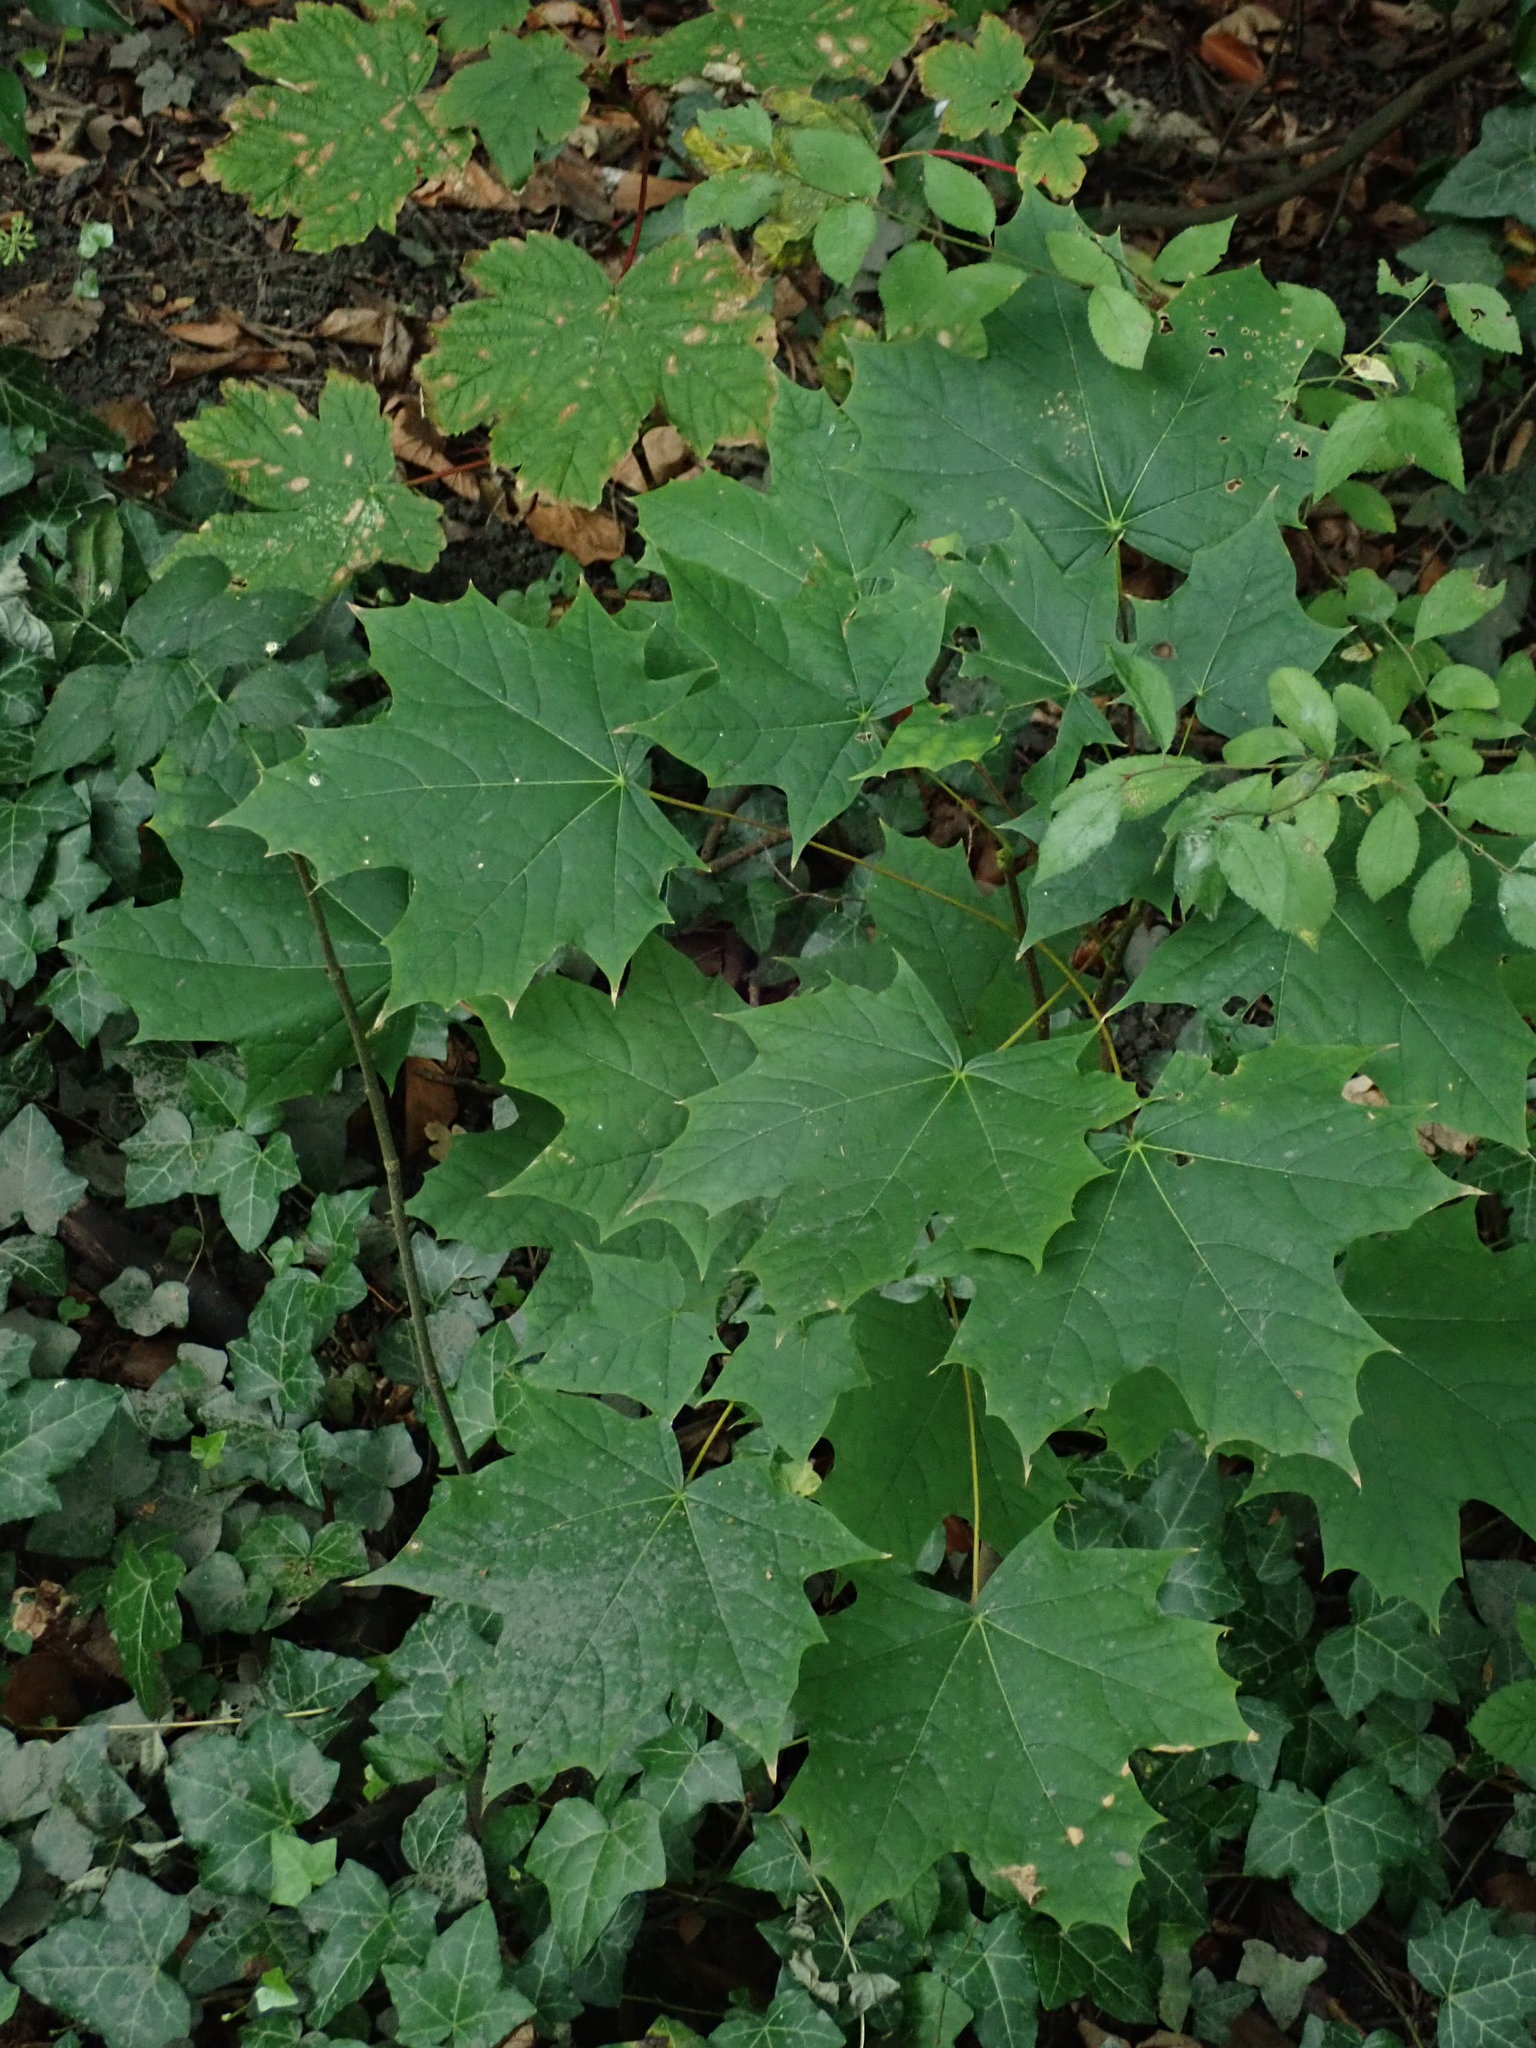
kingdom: Plantae
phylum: Tracheophyta
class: Magnoliopsida
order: Sapindales
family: Sapindaceae
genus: Acer
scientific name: Acer platanoides
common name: Norway maple
